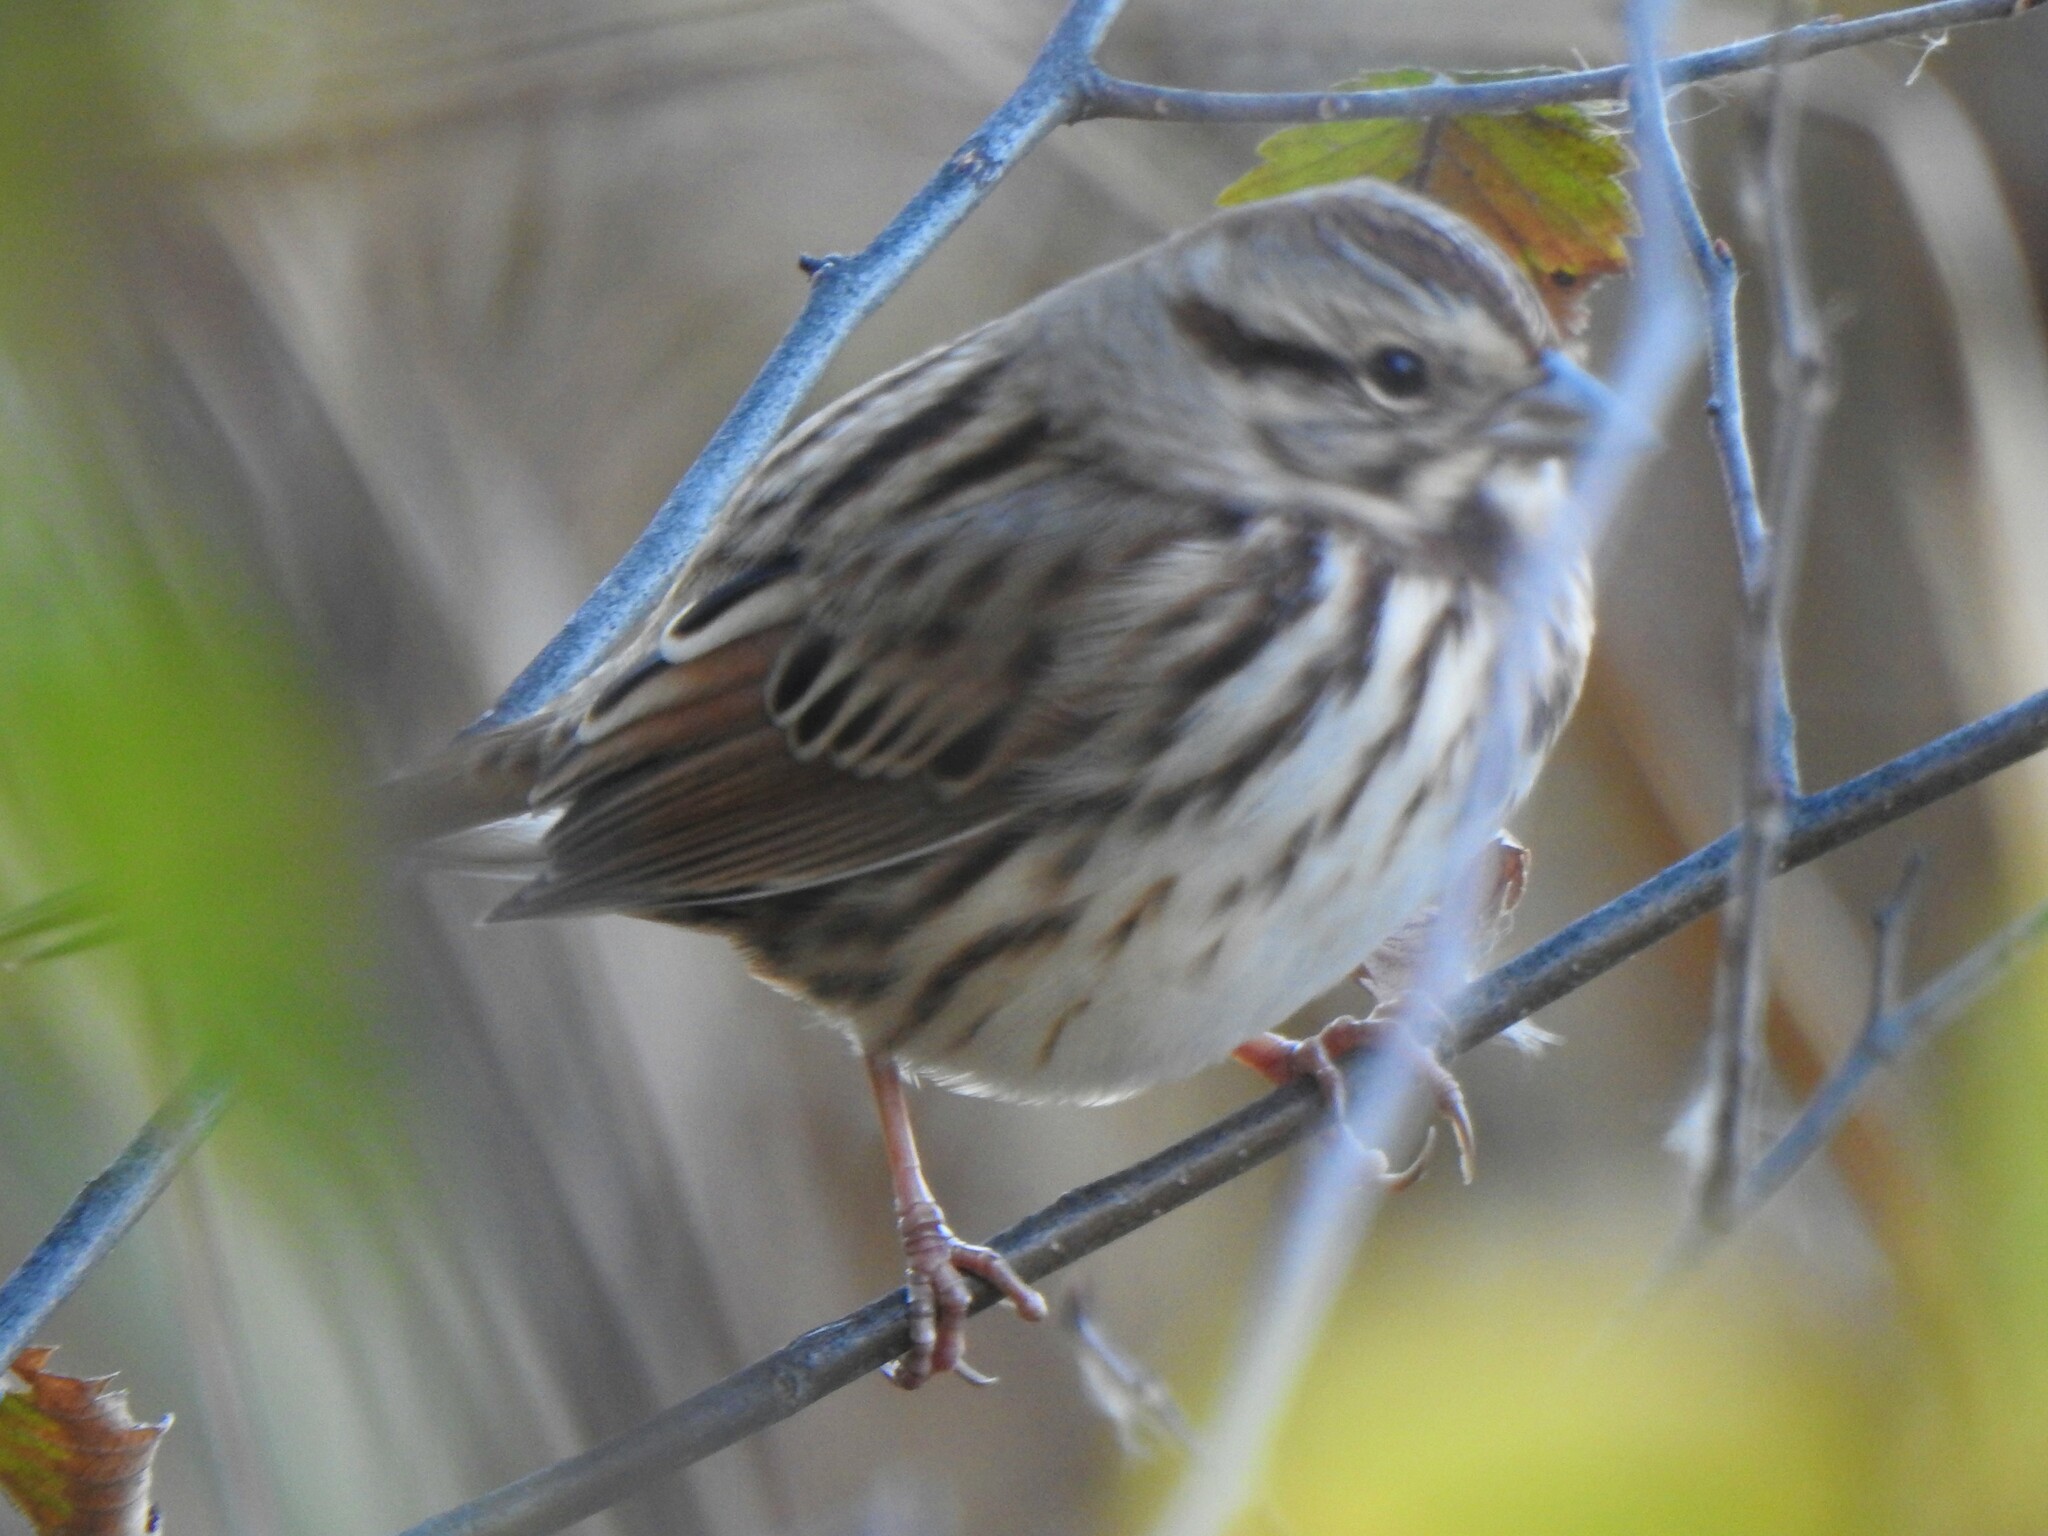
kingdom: Animalia
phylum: Chordata
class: Aves
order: Passeriformes
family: Passerellidae
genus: Melospiza
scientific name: Melospiza melodia
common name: Song sparrow
